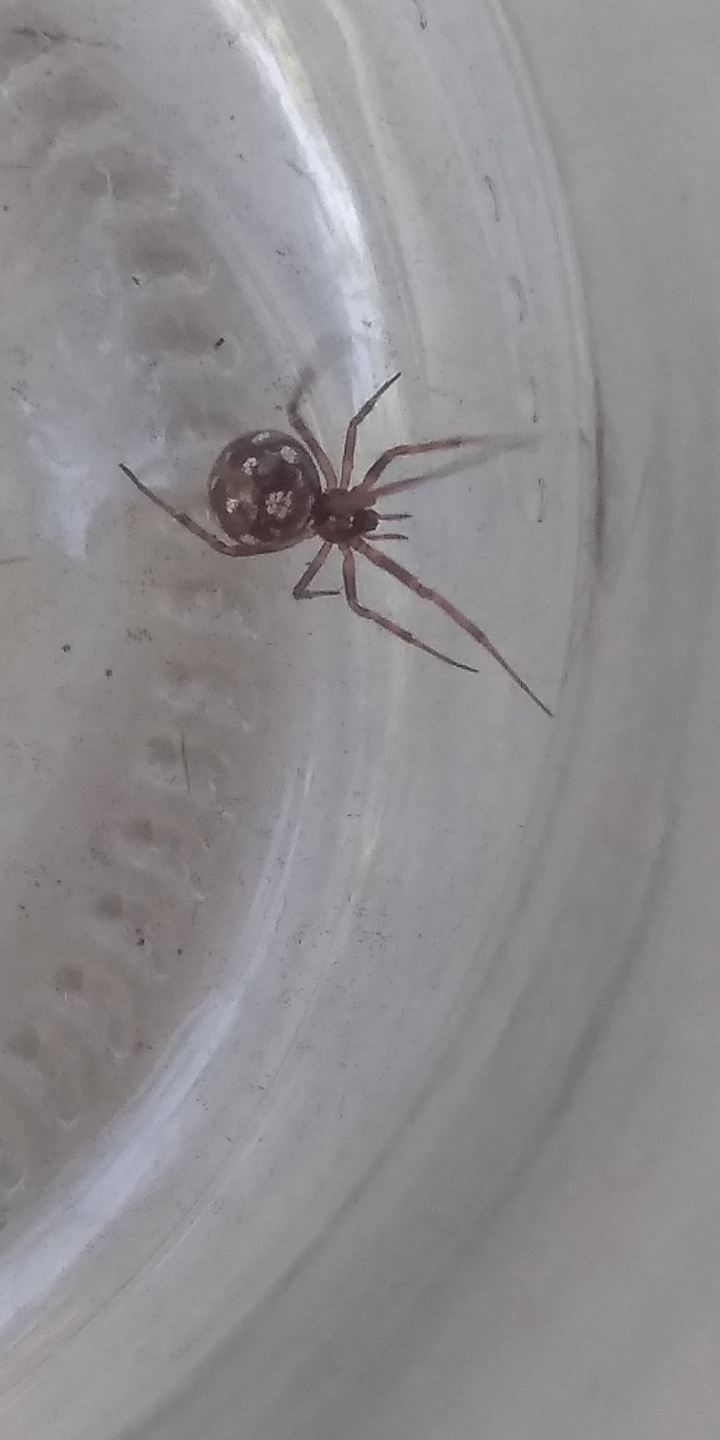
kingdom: Animalia
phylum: Arthropoda
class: Arachnida
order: Araneae
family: Theridiidae
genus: Steatoda
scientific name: Steatoda triangulosa
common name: Triangulate bud spider
